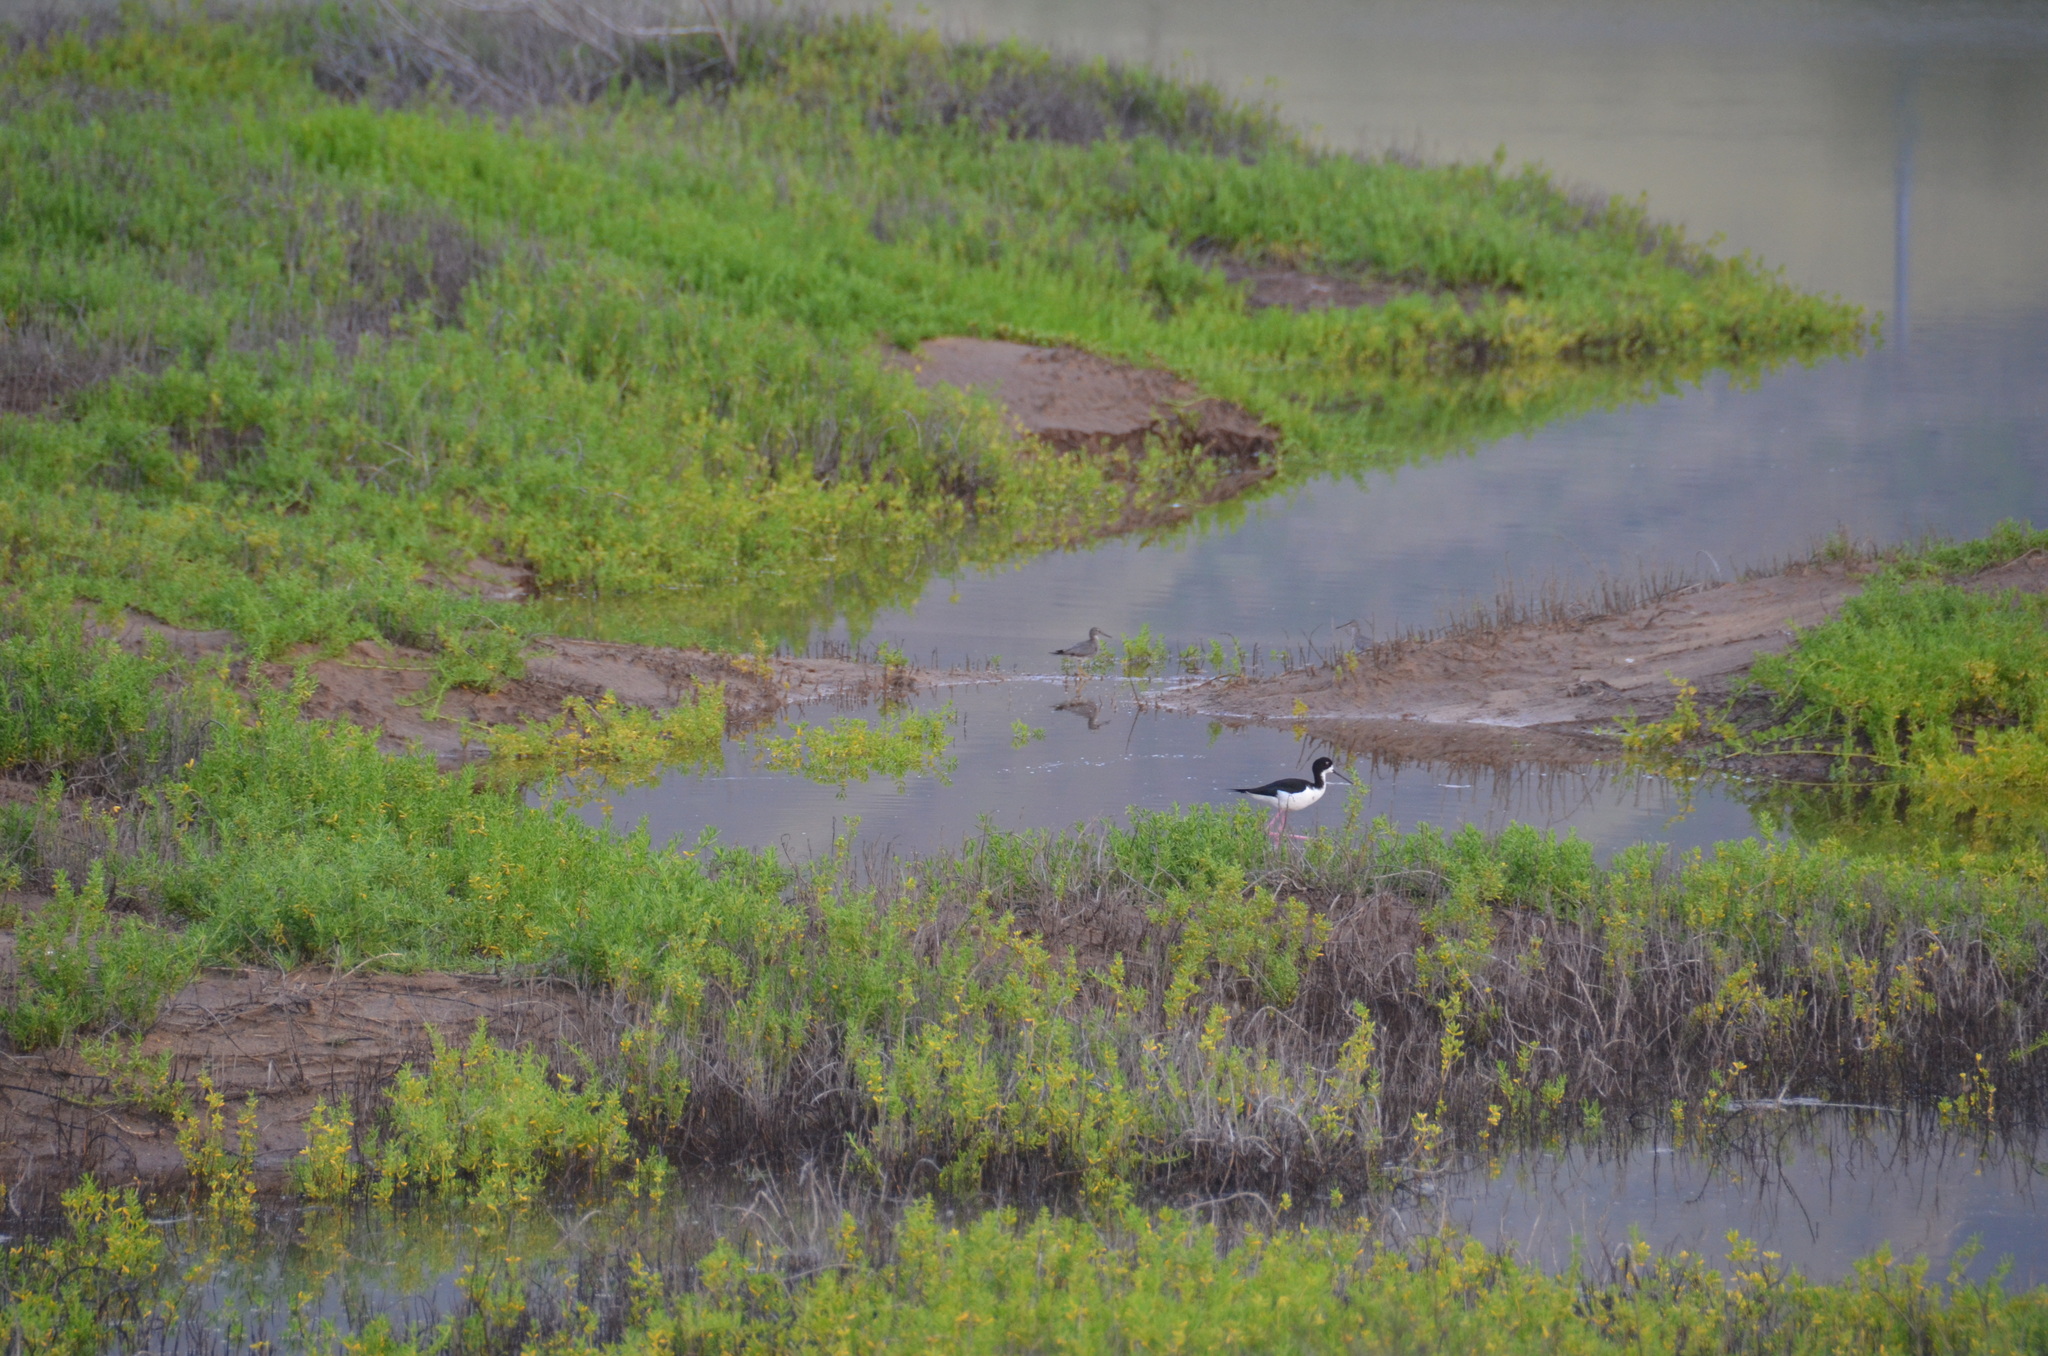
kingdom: Animalia
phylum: Chordata
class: Aves
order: Charadriiformes
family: Scolopacidae
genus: Tringa
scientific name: Tringa incana
